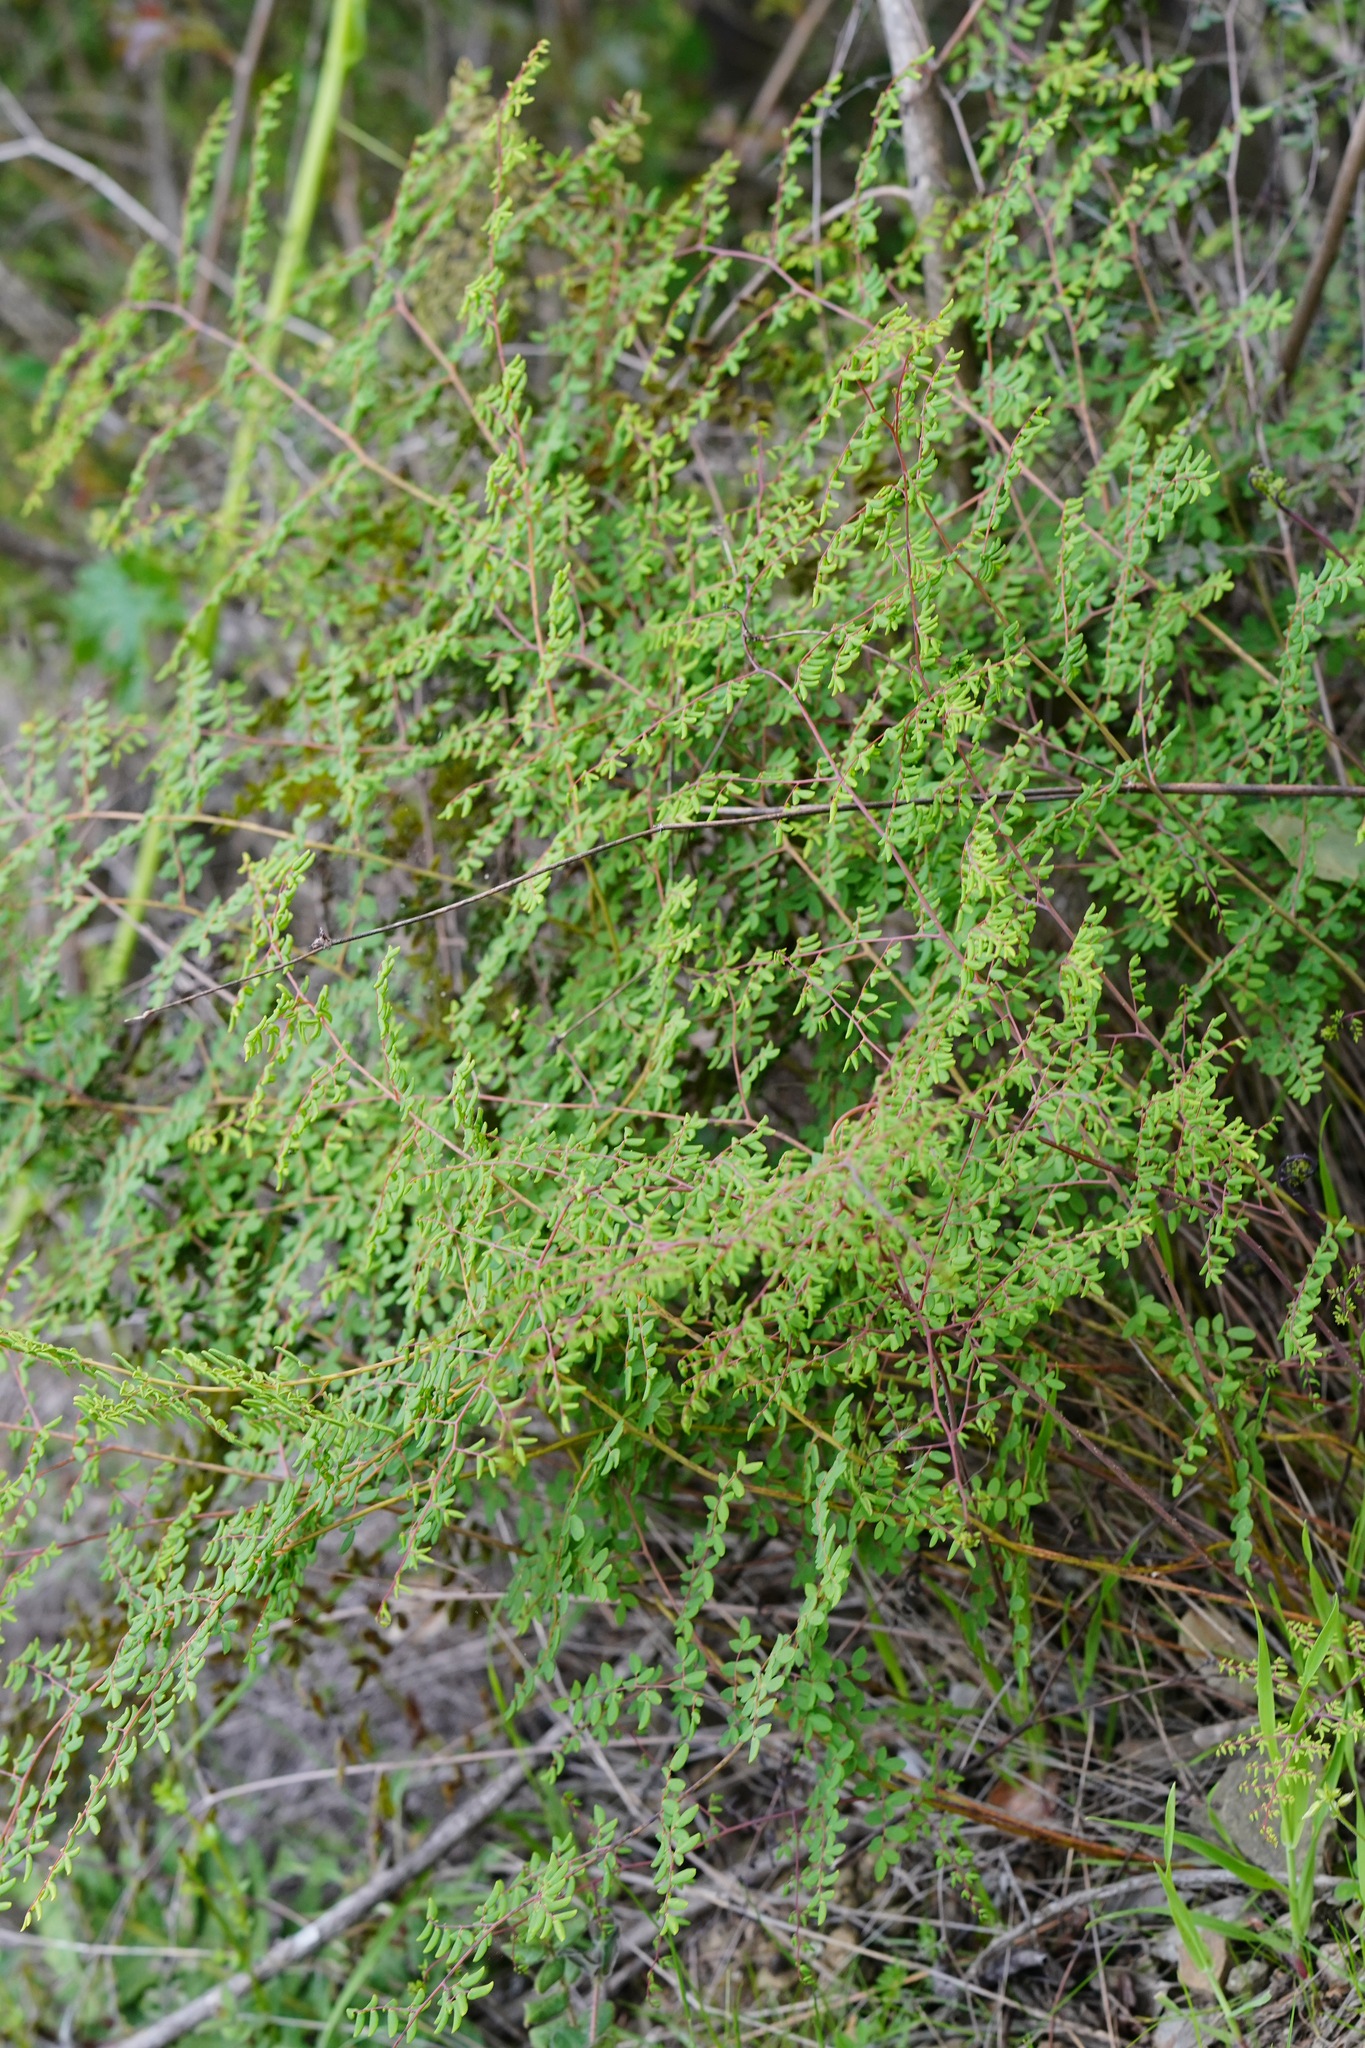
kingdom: Plantae
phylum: Tracheophyta
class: Polypodiopsida
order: Polypodiales
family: Pteridaceae
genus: Pellaea
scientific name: Pellaea andromedifolia
